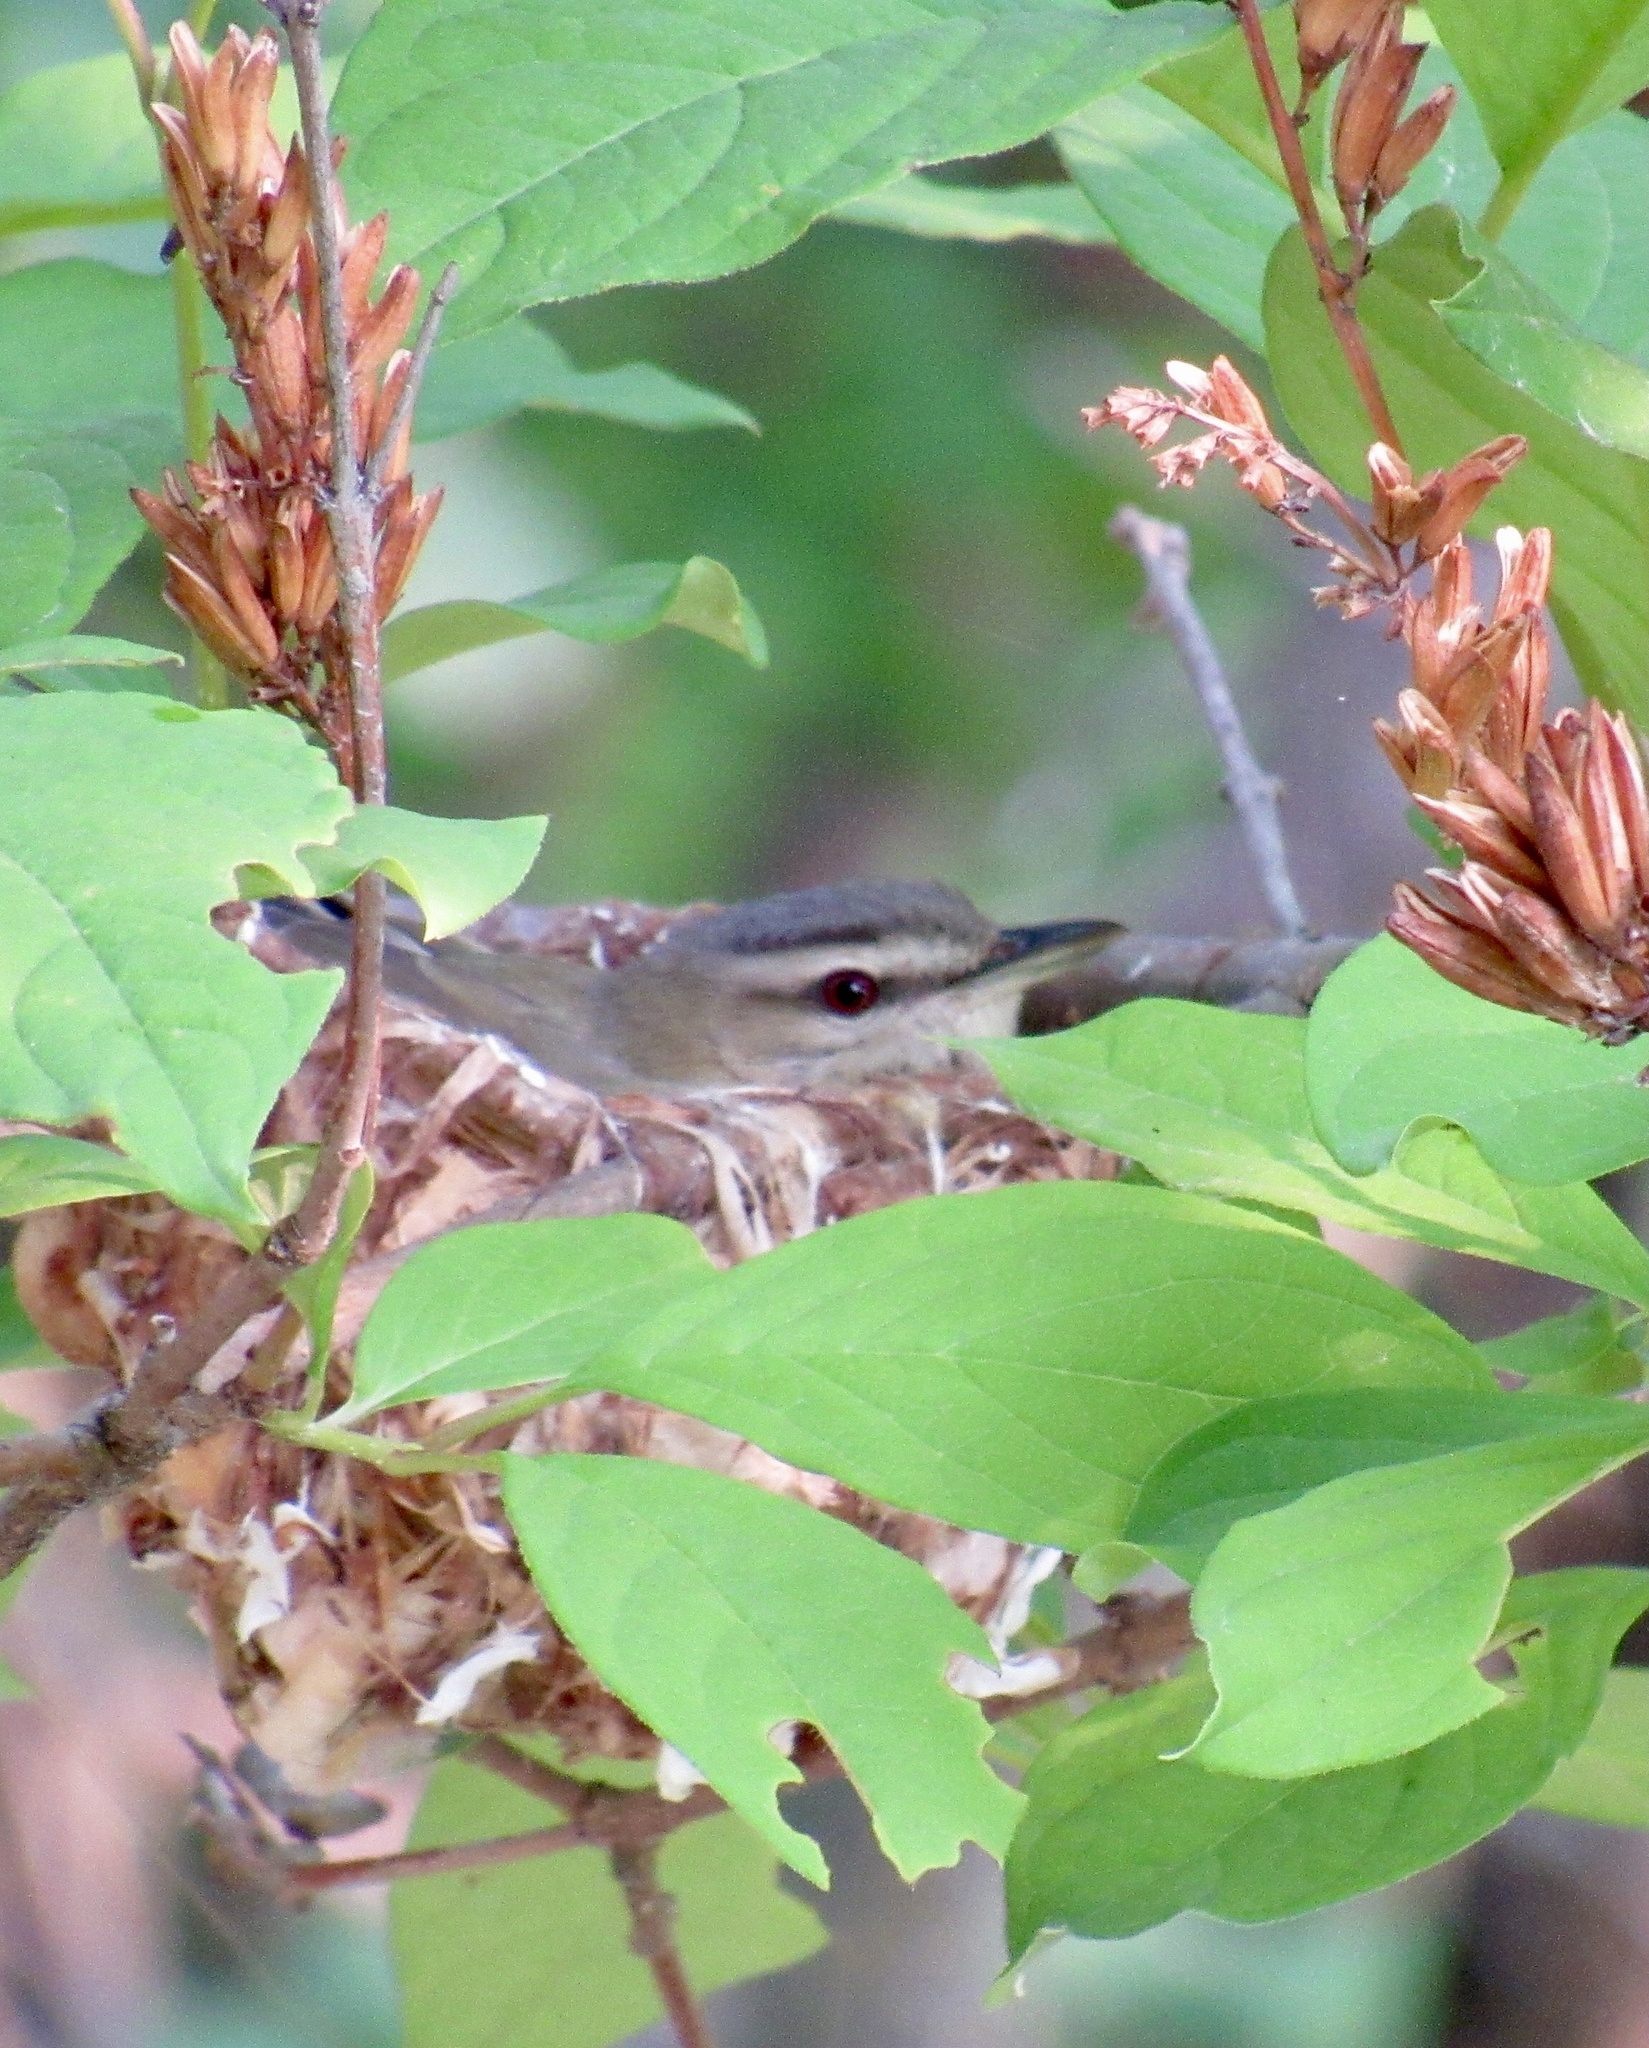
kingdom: Animalia
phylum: Chordata
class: Aves
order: Passeriformes
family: Vireonidae
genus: Vireo
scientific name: Vireo olivaceus
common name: Red-eyed vireo
